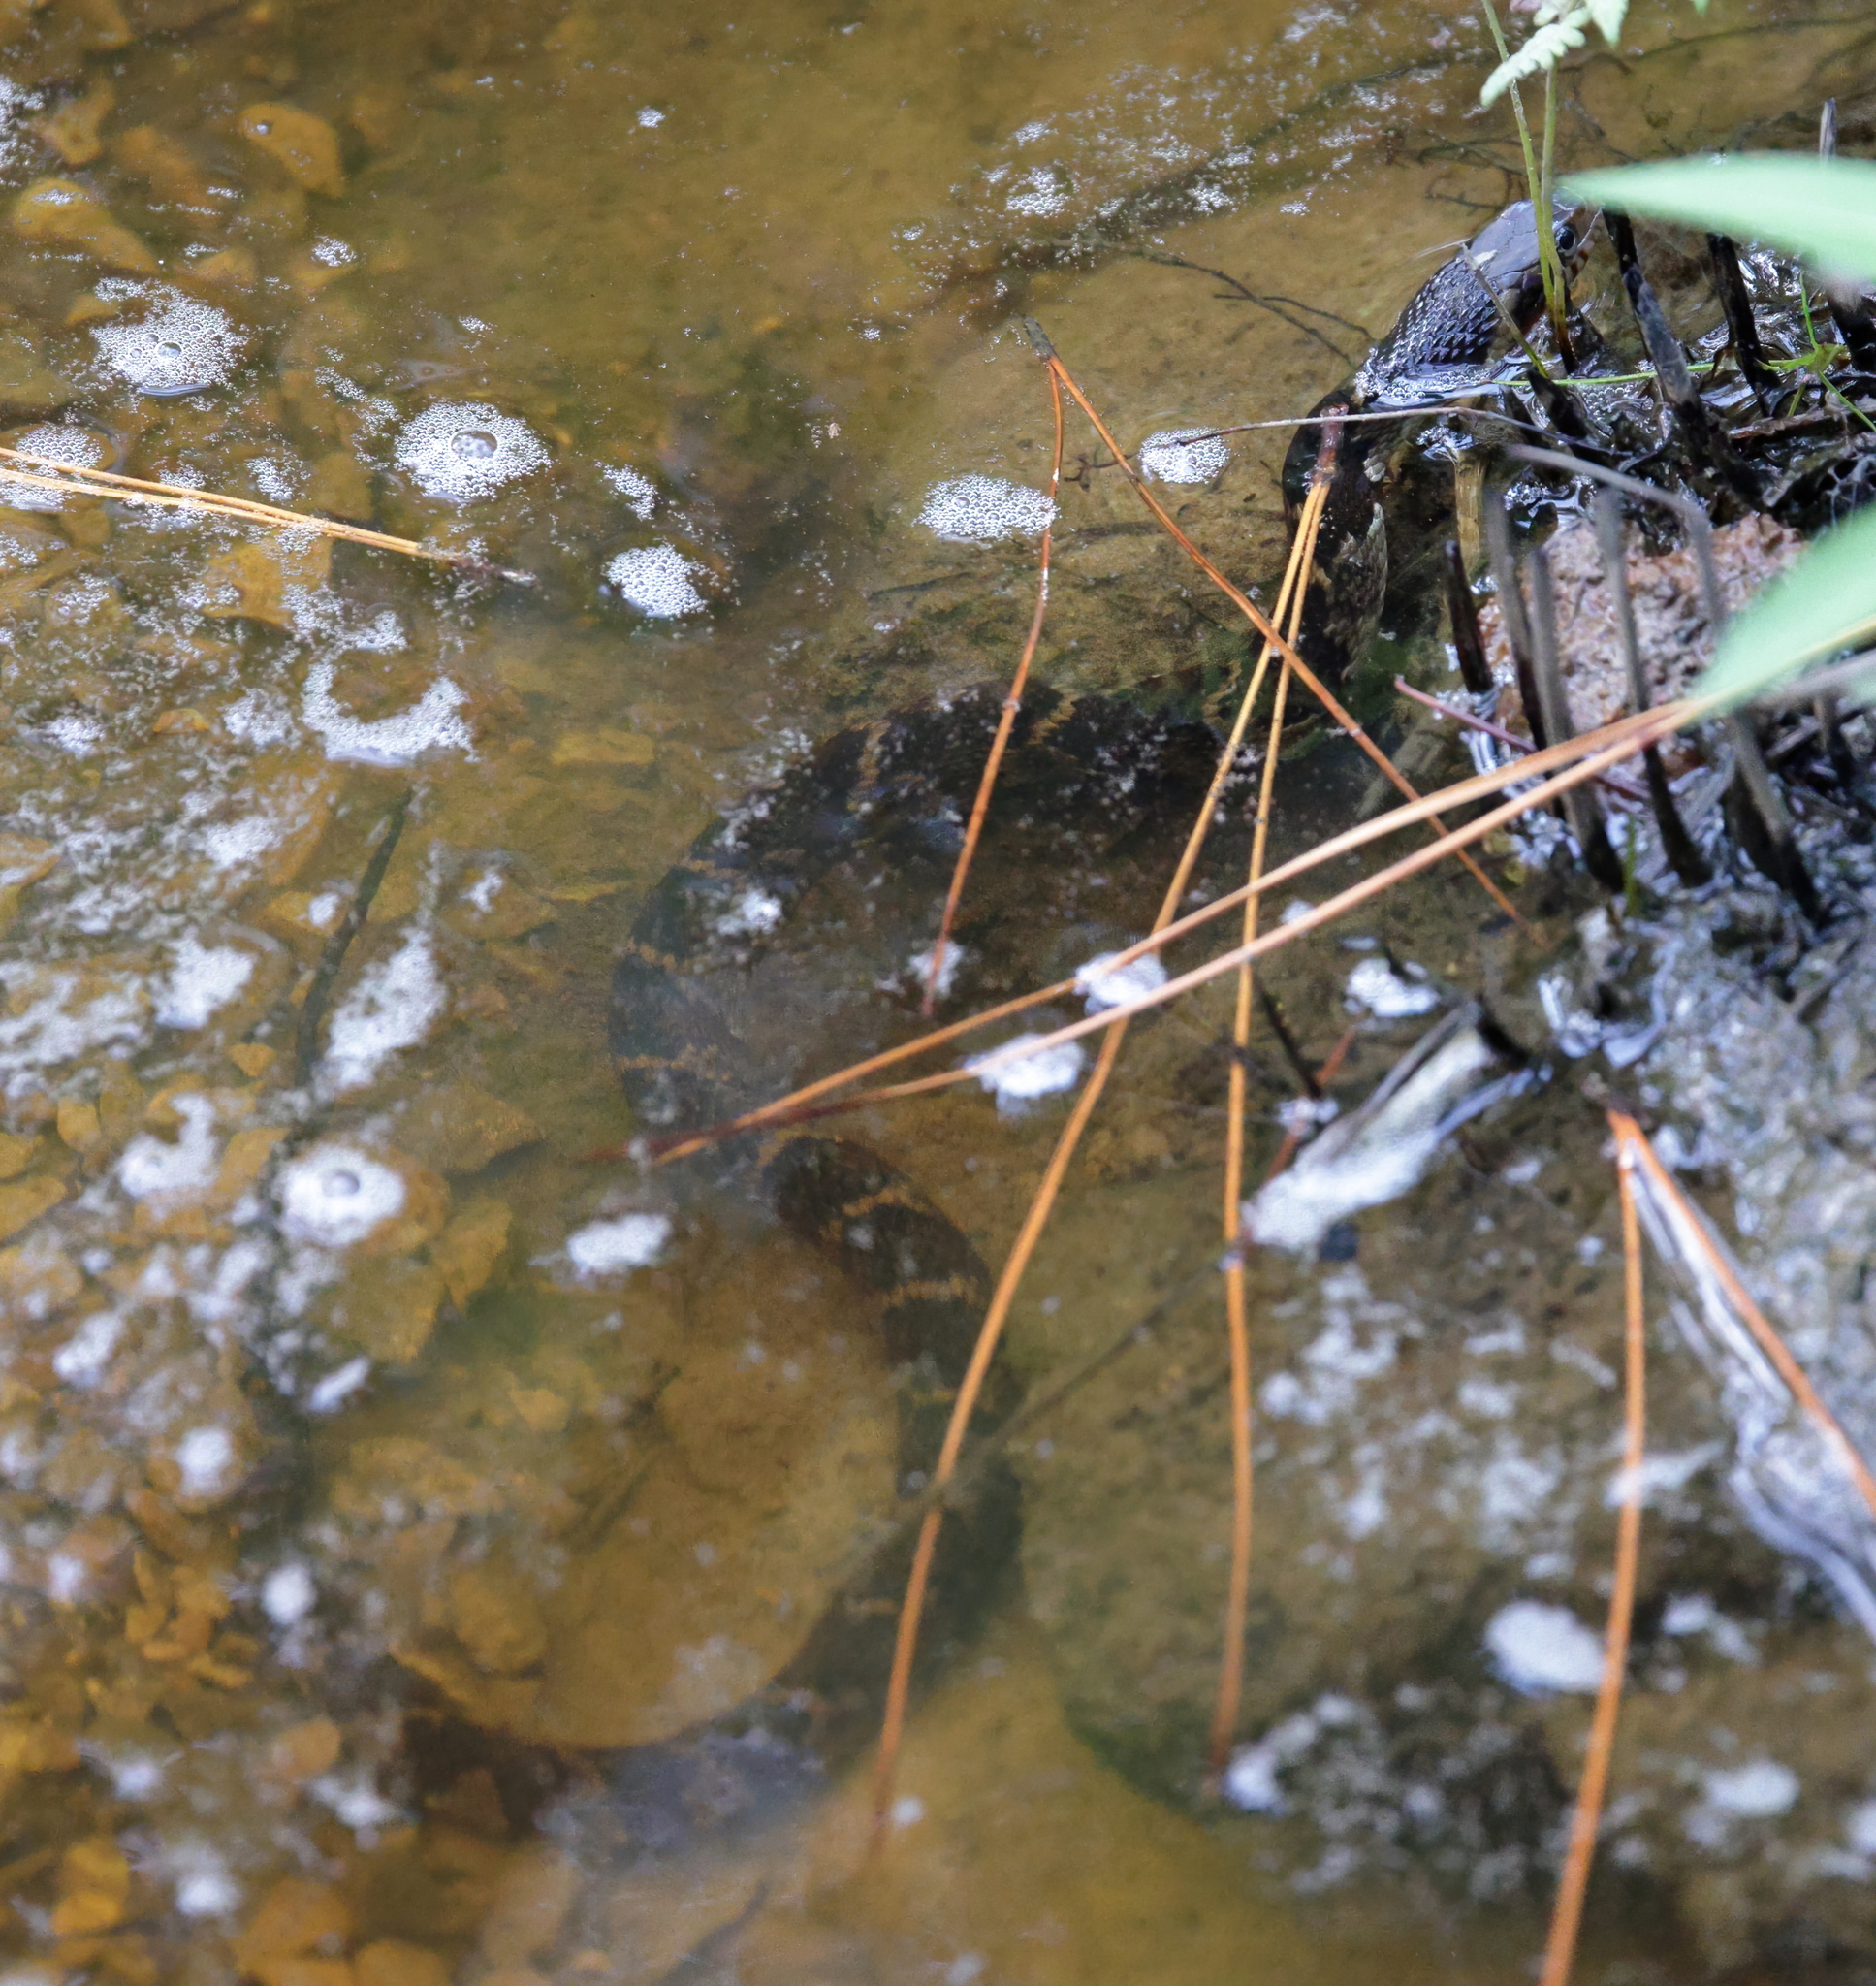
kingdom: Animalia
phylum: Chordata
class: Squamata
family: Colubridae
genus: Nerodia
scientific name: Nerodia fasciata
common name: Southern water snake
